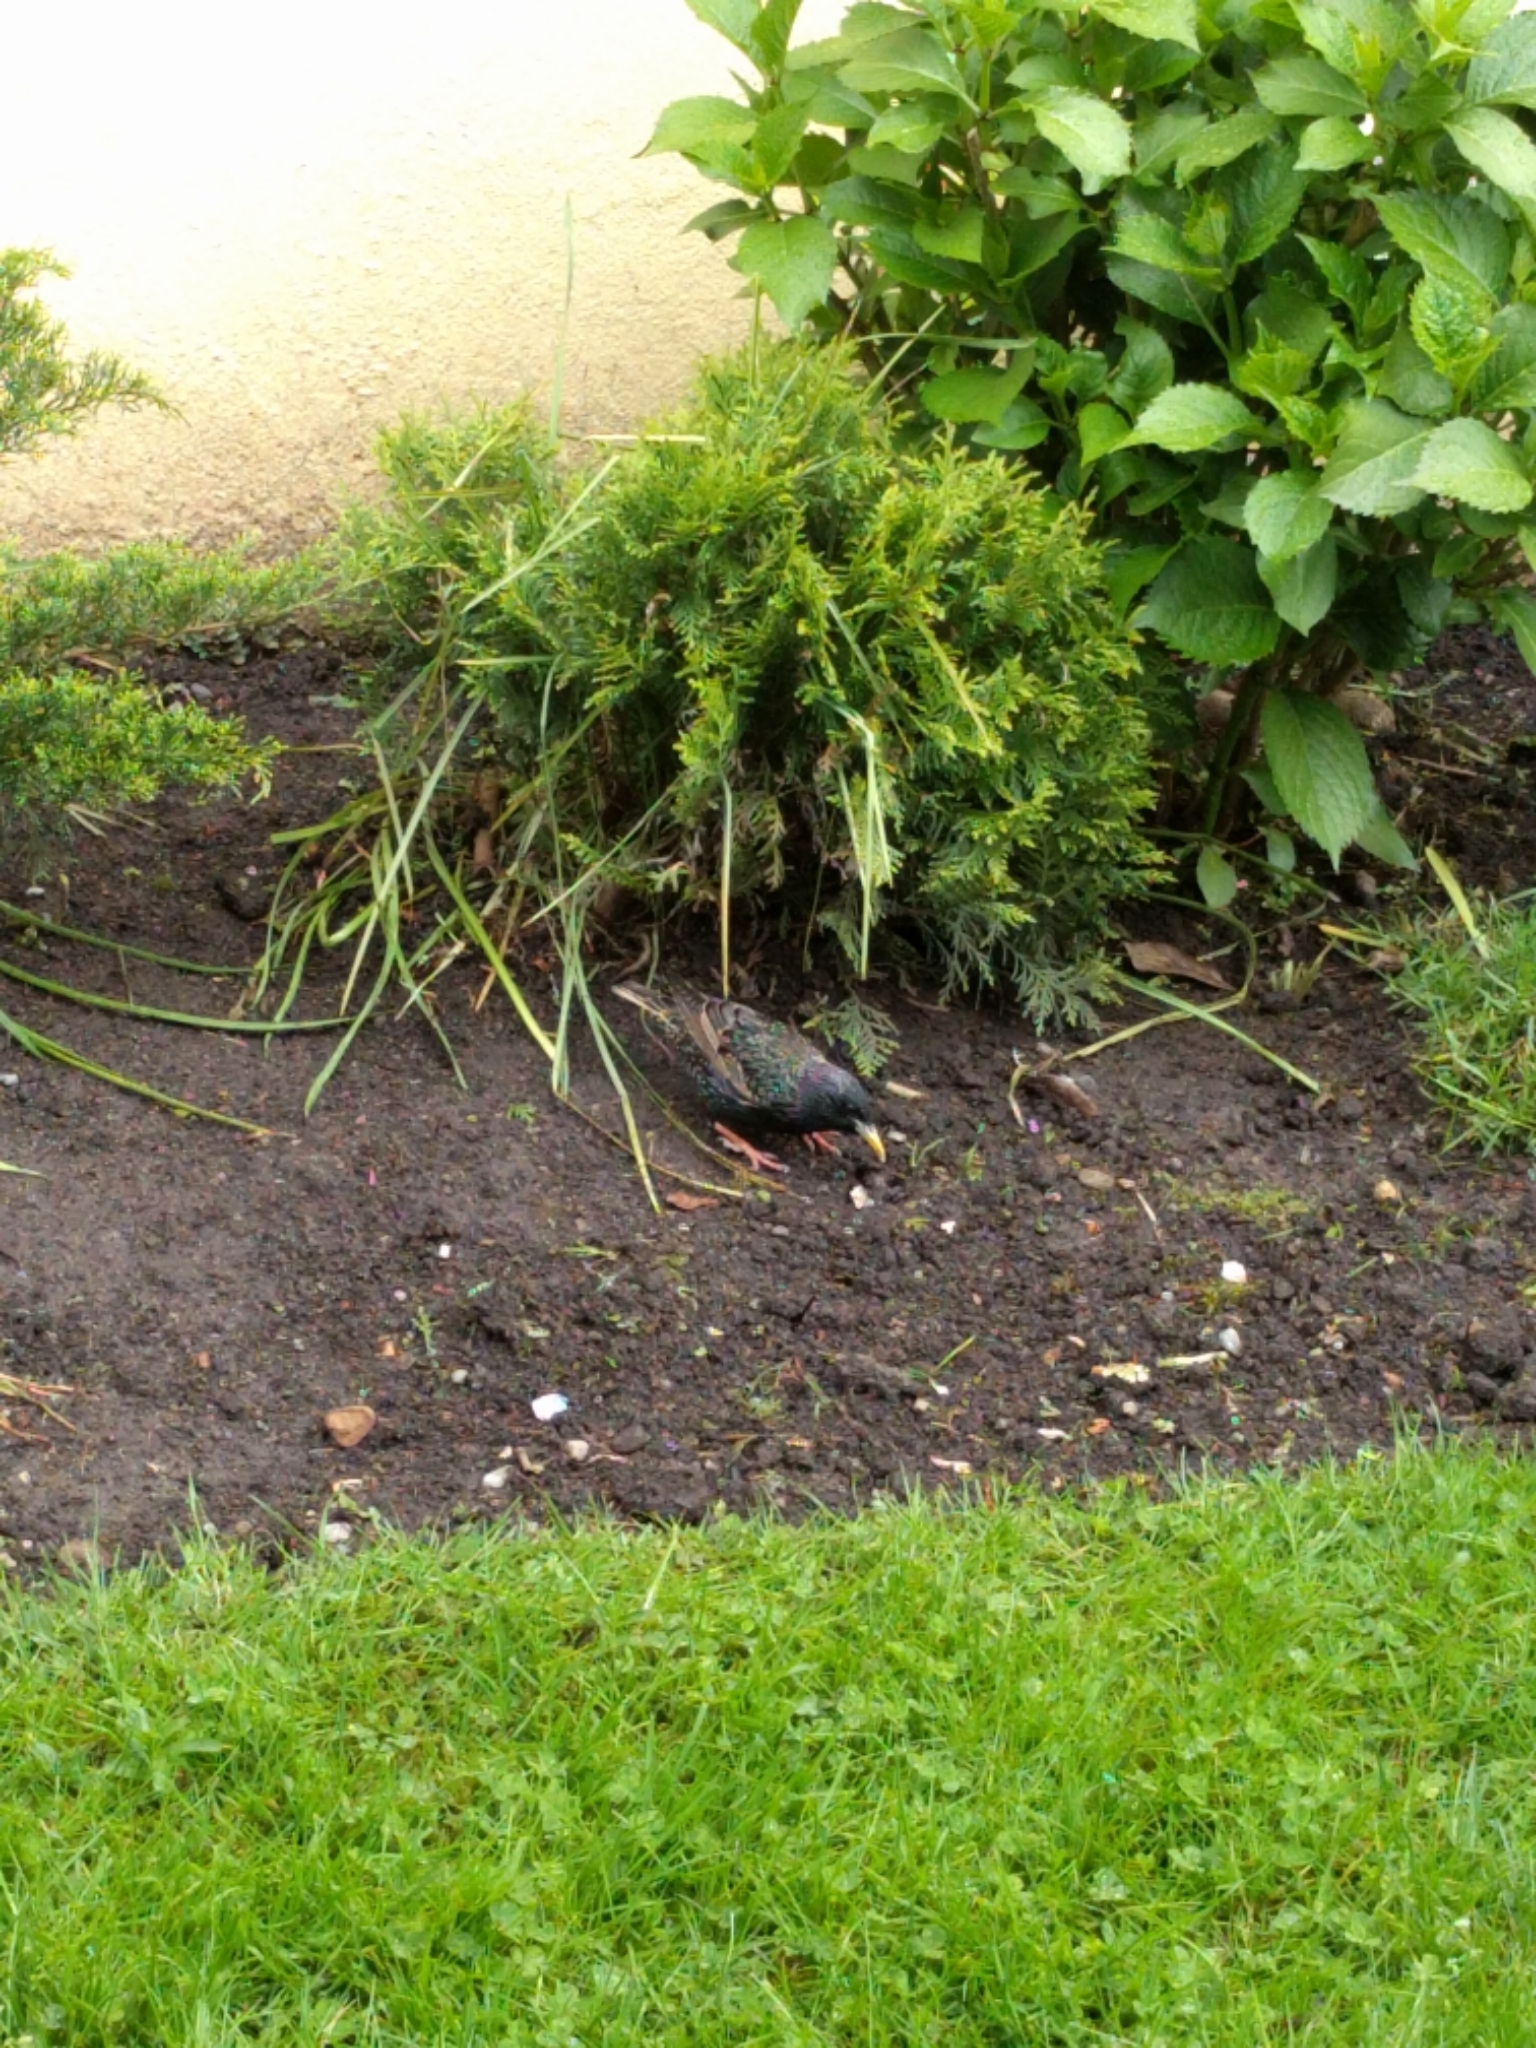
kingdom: Animalia
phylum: Chordata
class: Aves
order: Passeriformes
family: Sturnidae
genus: Sturnus
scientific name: Sturnus vulgaris
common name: Common starling
